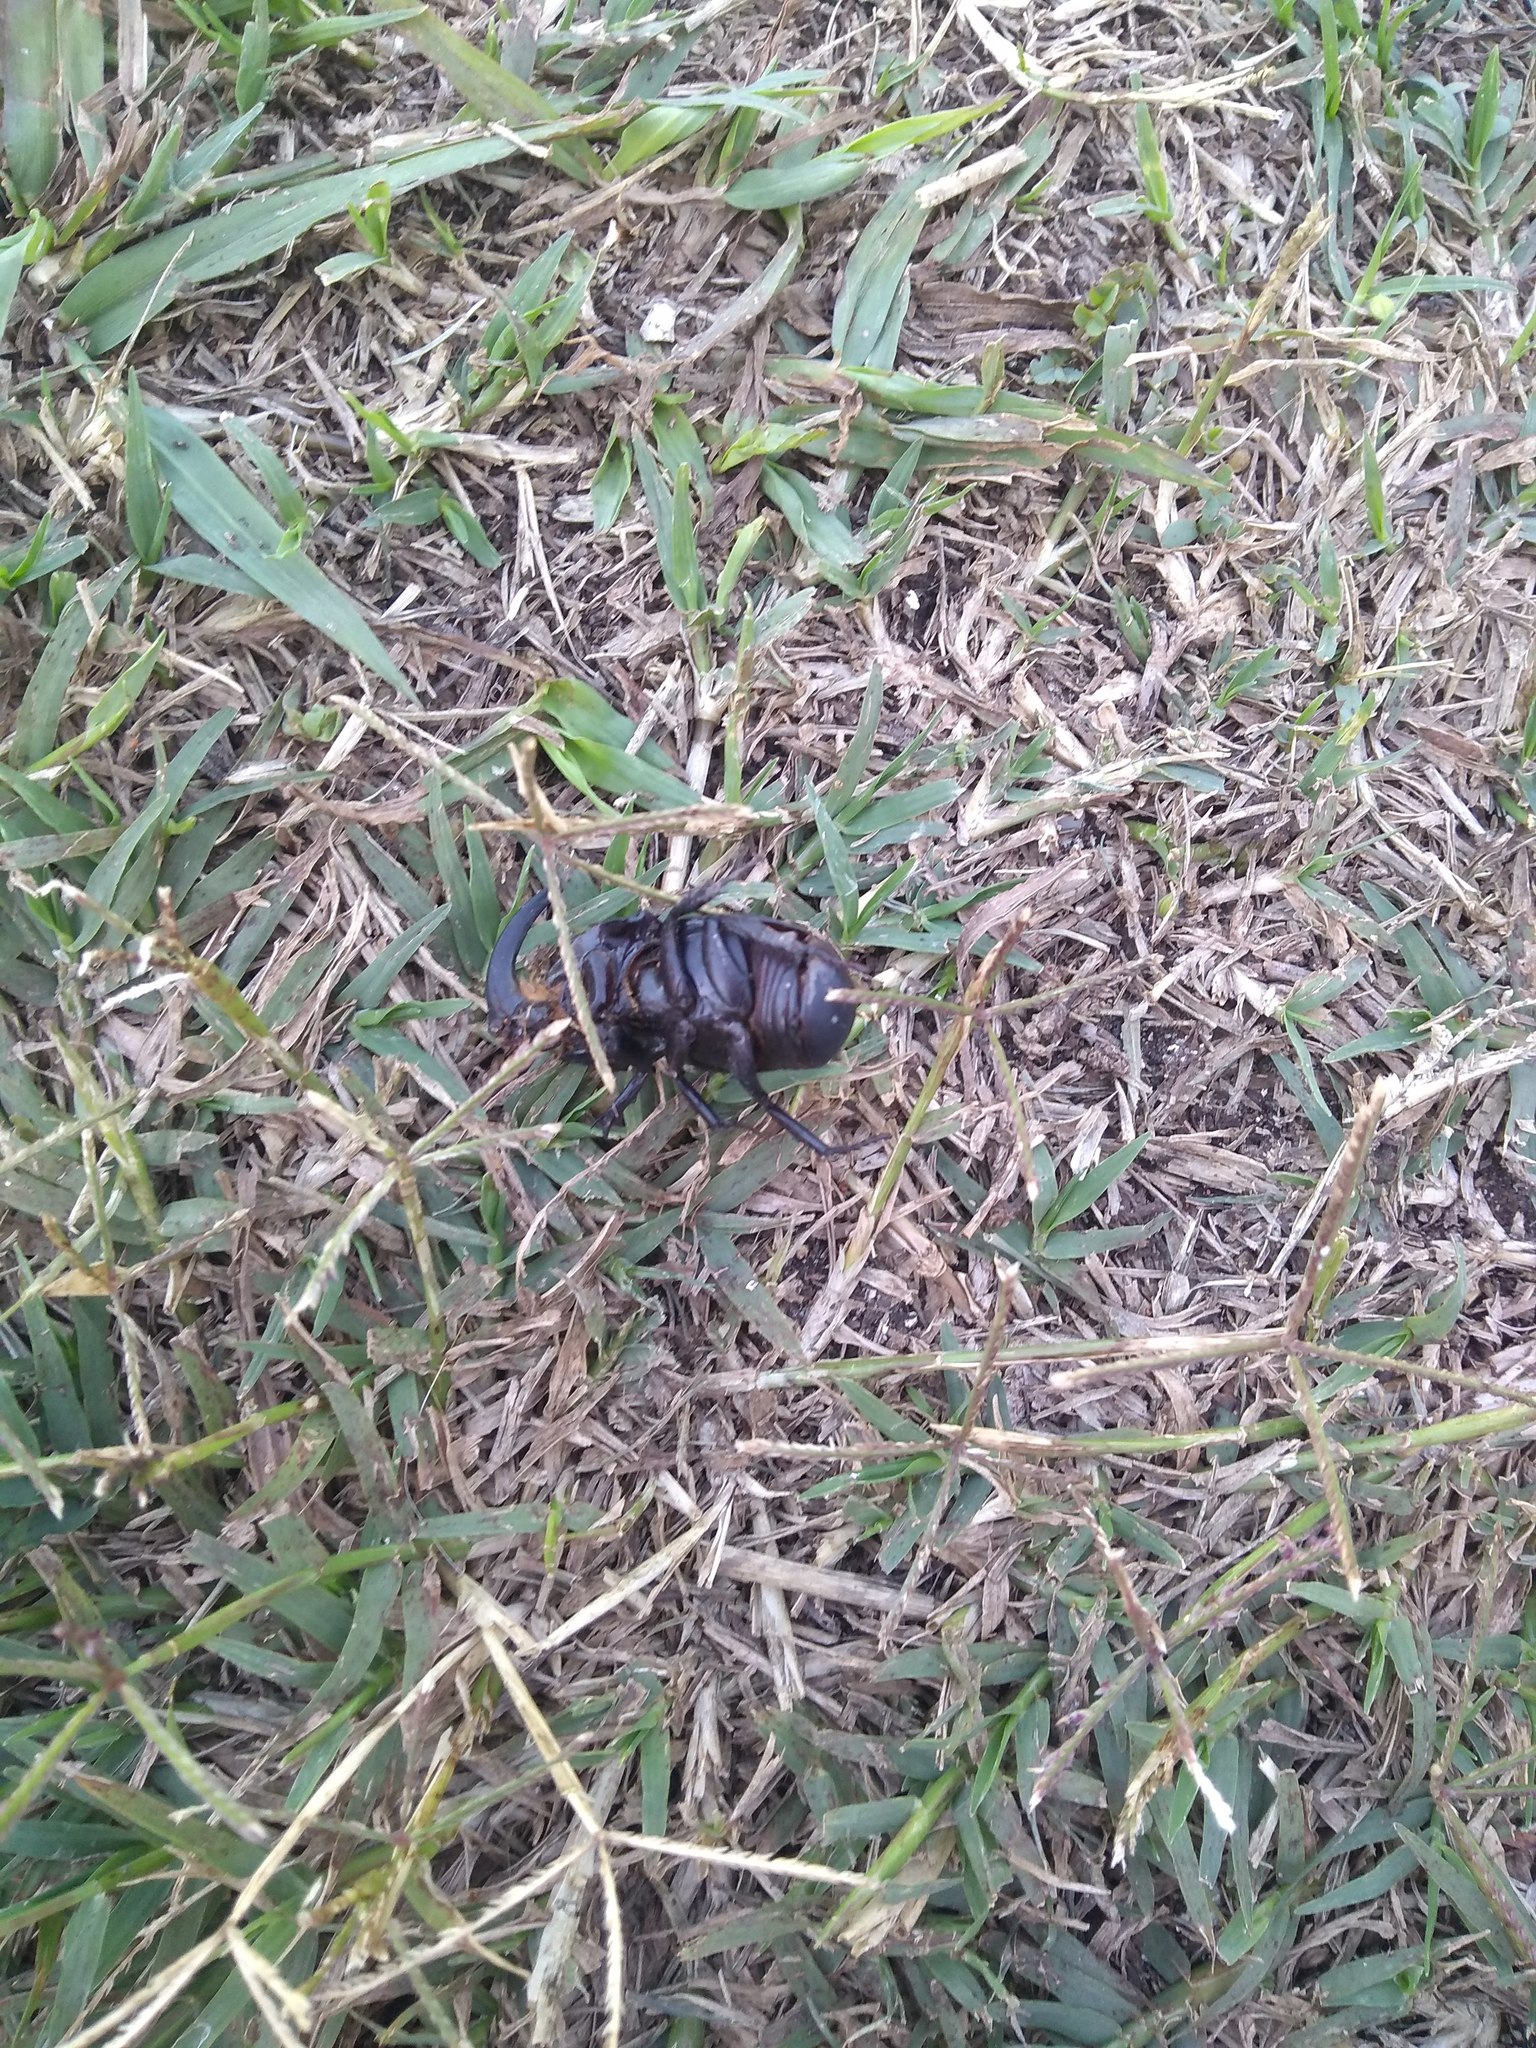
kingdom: Animalia
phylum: Arthropoda
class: Insecta
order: Coleoptera
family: Scarabaeidae
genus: Diloboderus
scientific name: Diloboderus abderus
